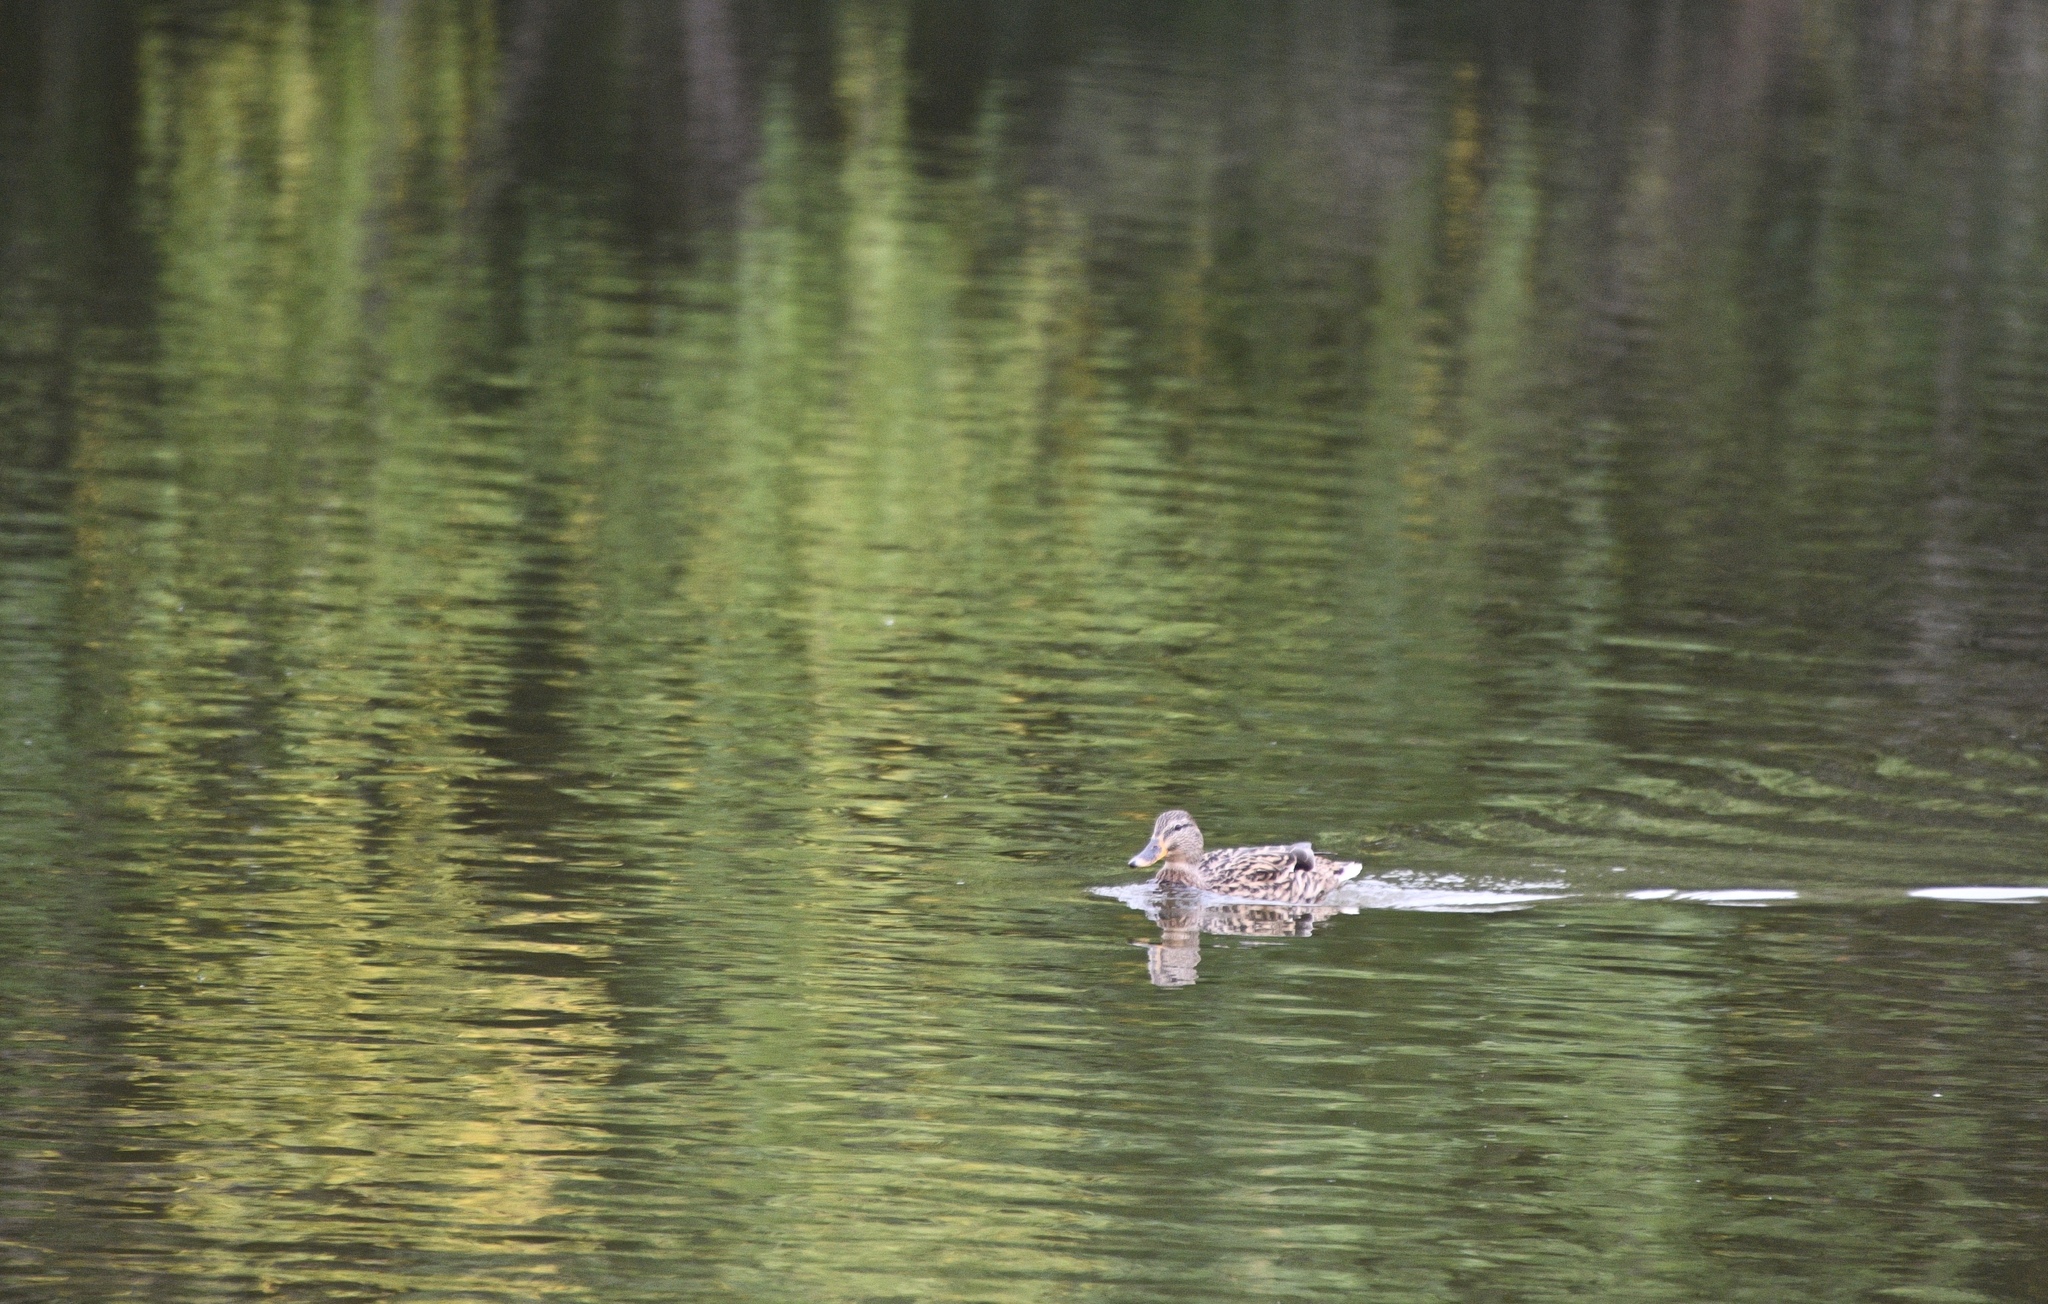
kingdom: Animalia
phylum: Chordata
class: Aves
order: Anseriformes
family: Anatidae
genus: Anas
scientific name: Anas platyrhynchos
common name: Mallard
